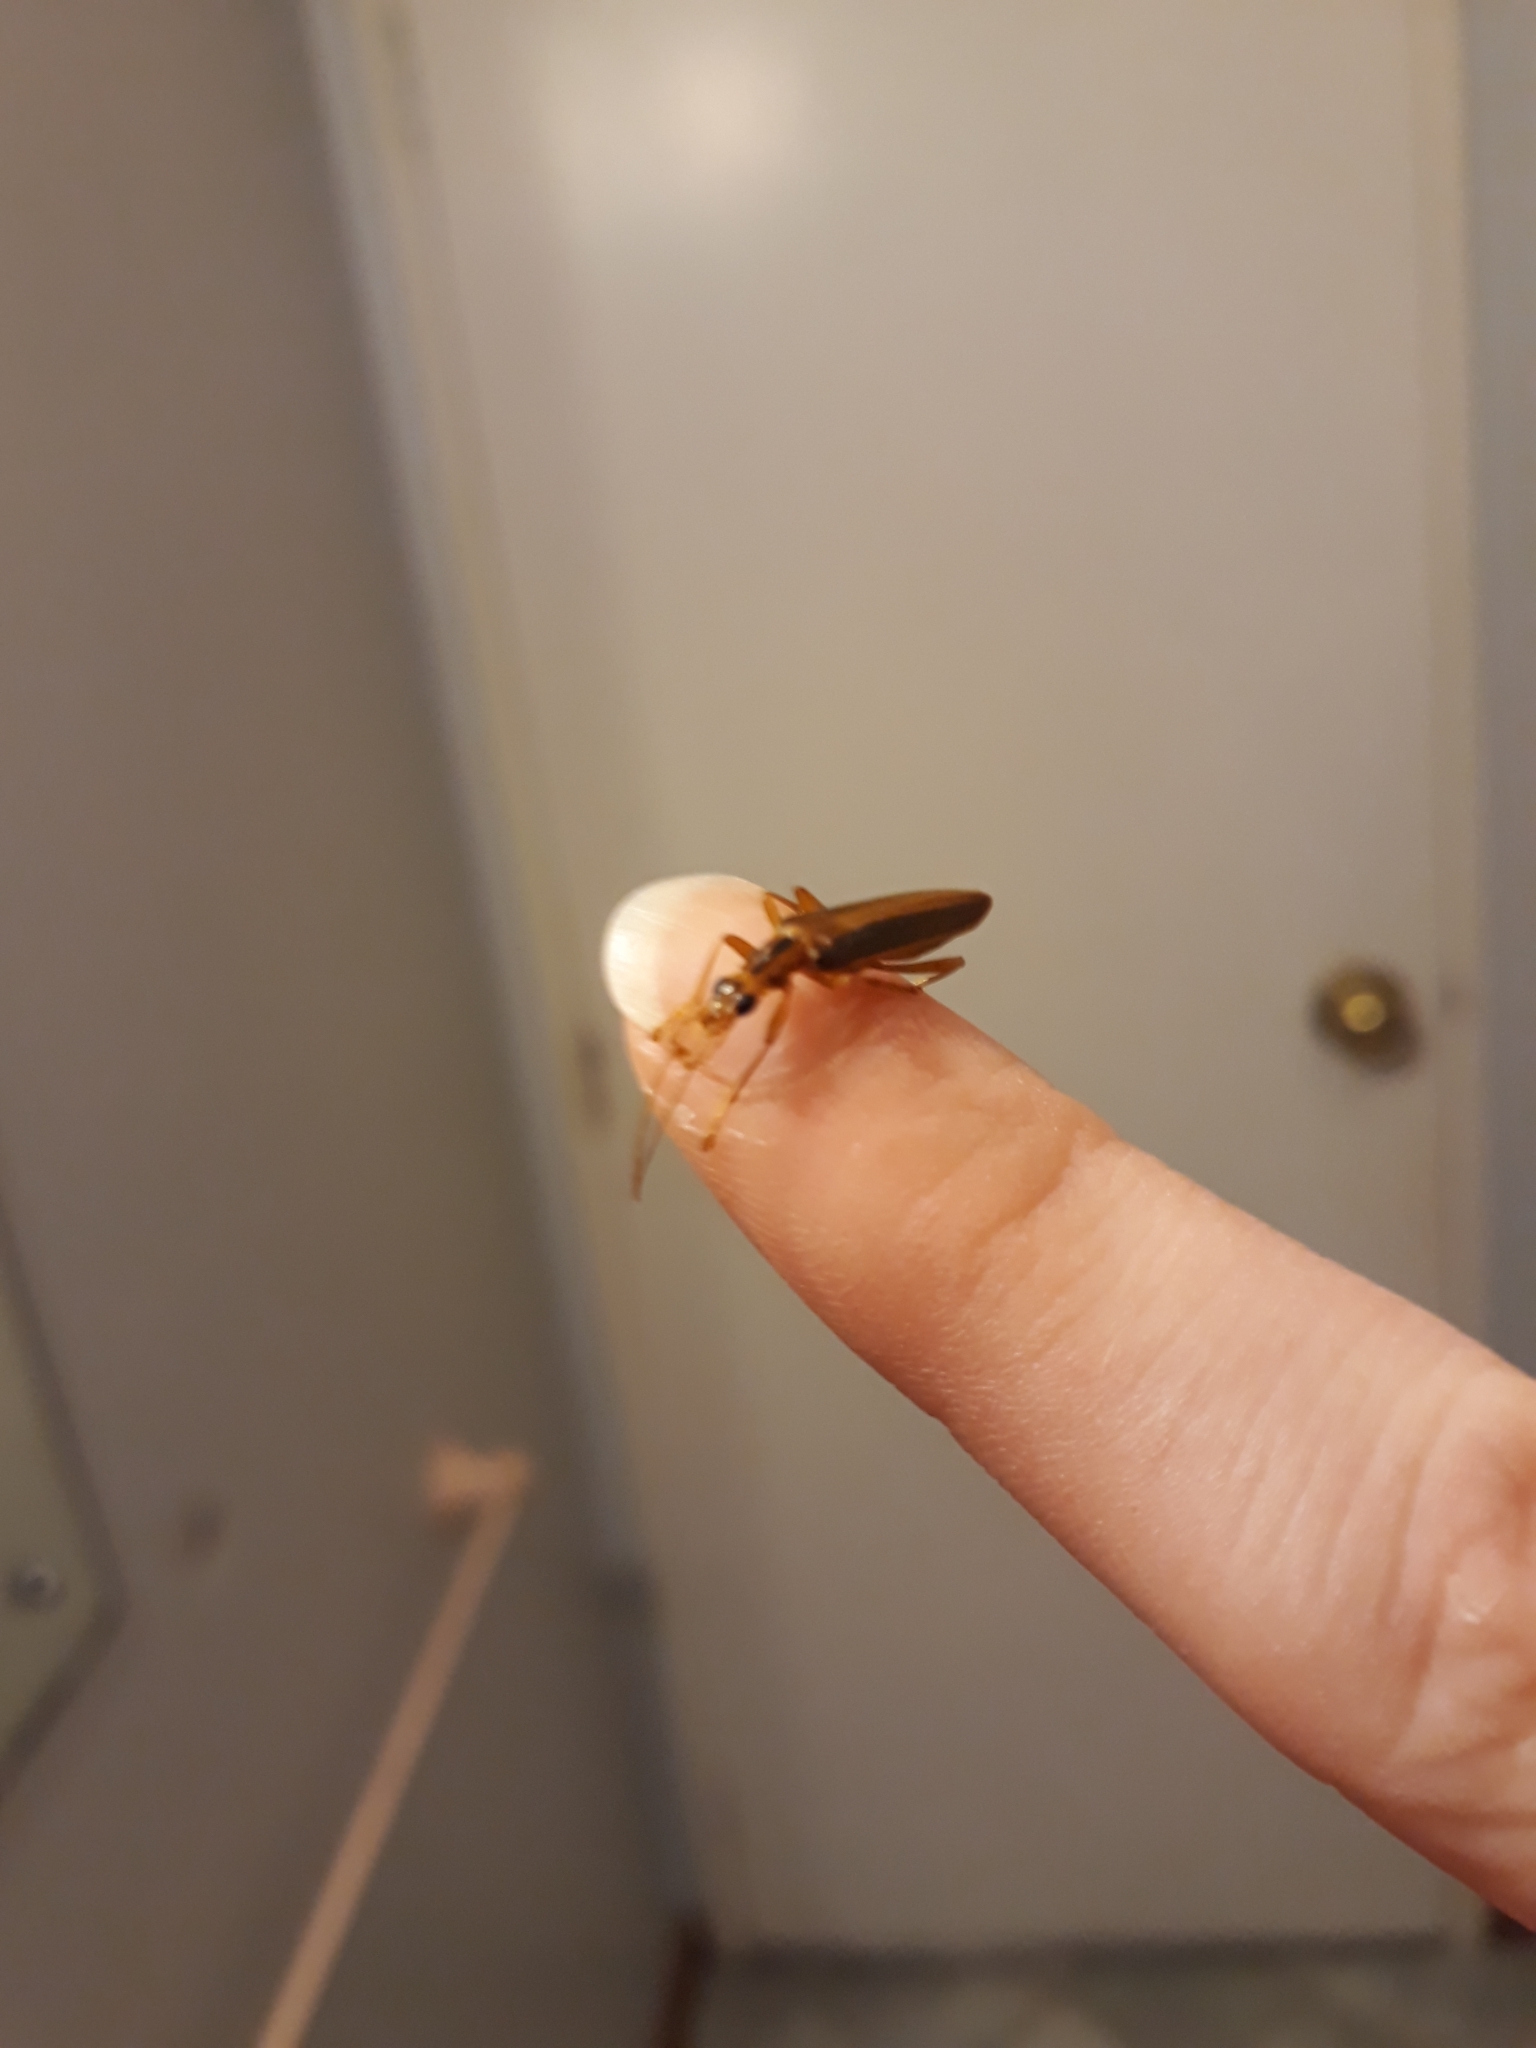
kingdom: Animalia
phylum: Arthropoda
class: Insecta
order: Coleoptera
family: Oedemeridae
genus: Thelyphassa
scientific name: Thelyphassa
